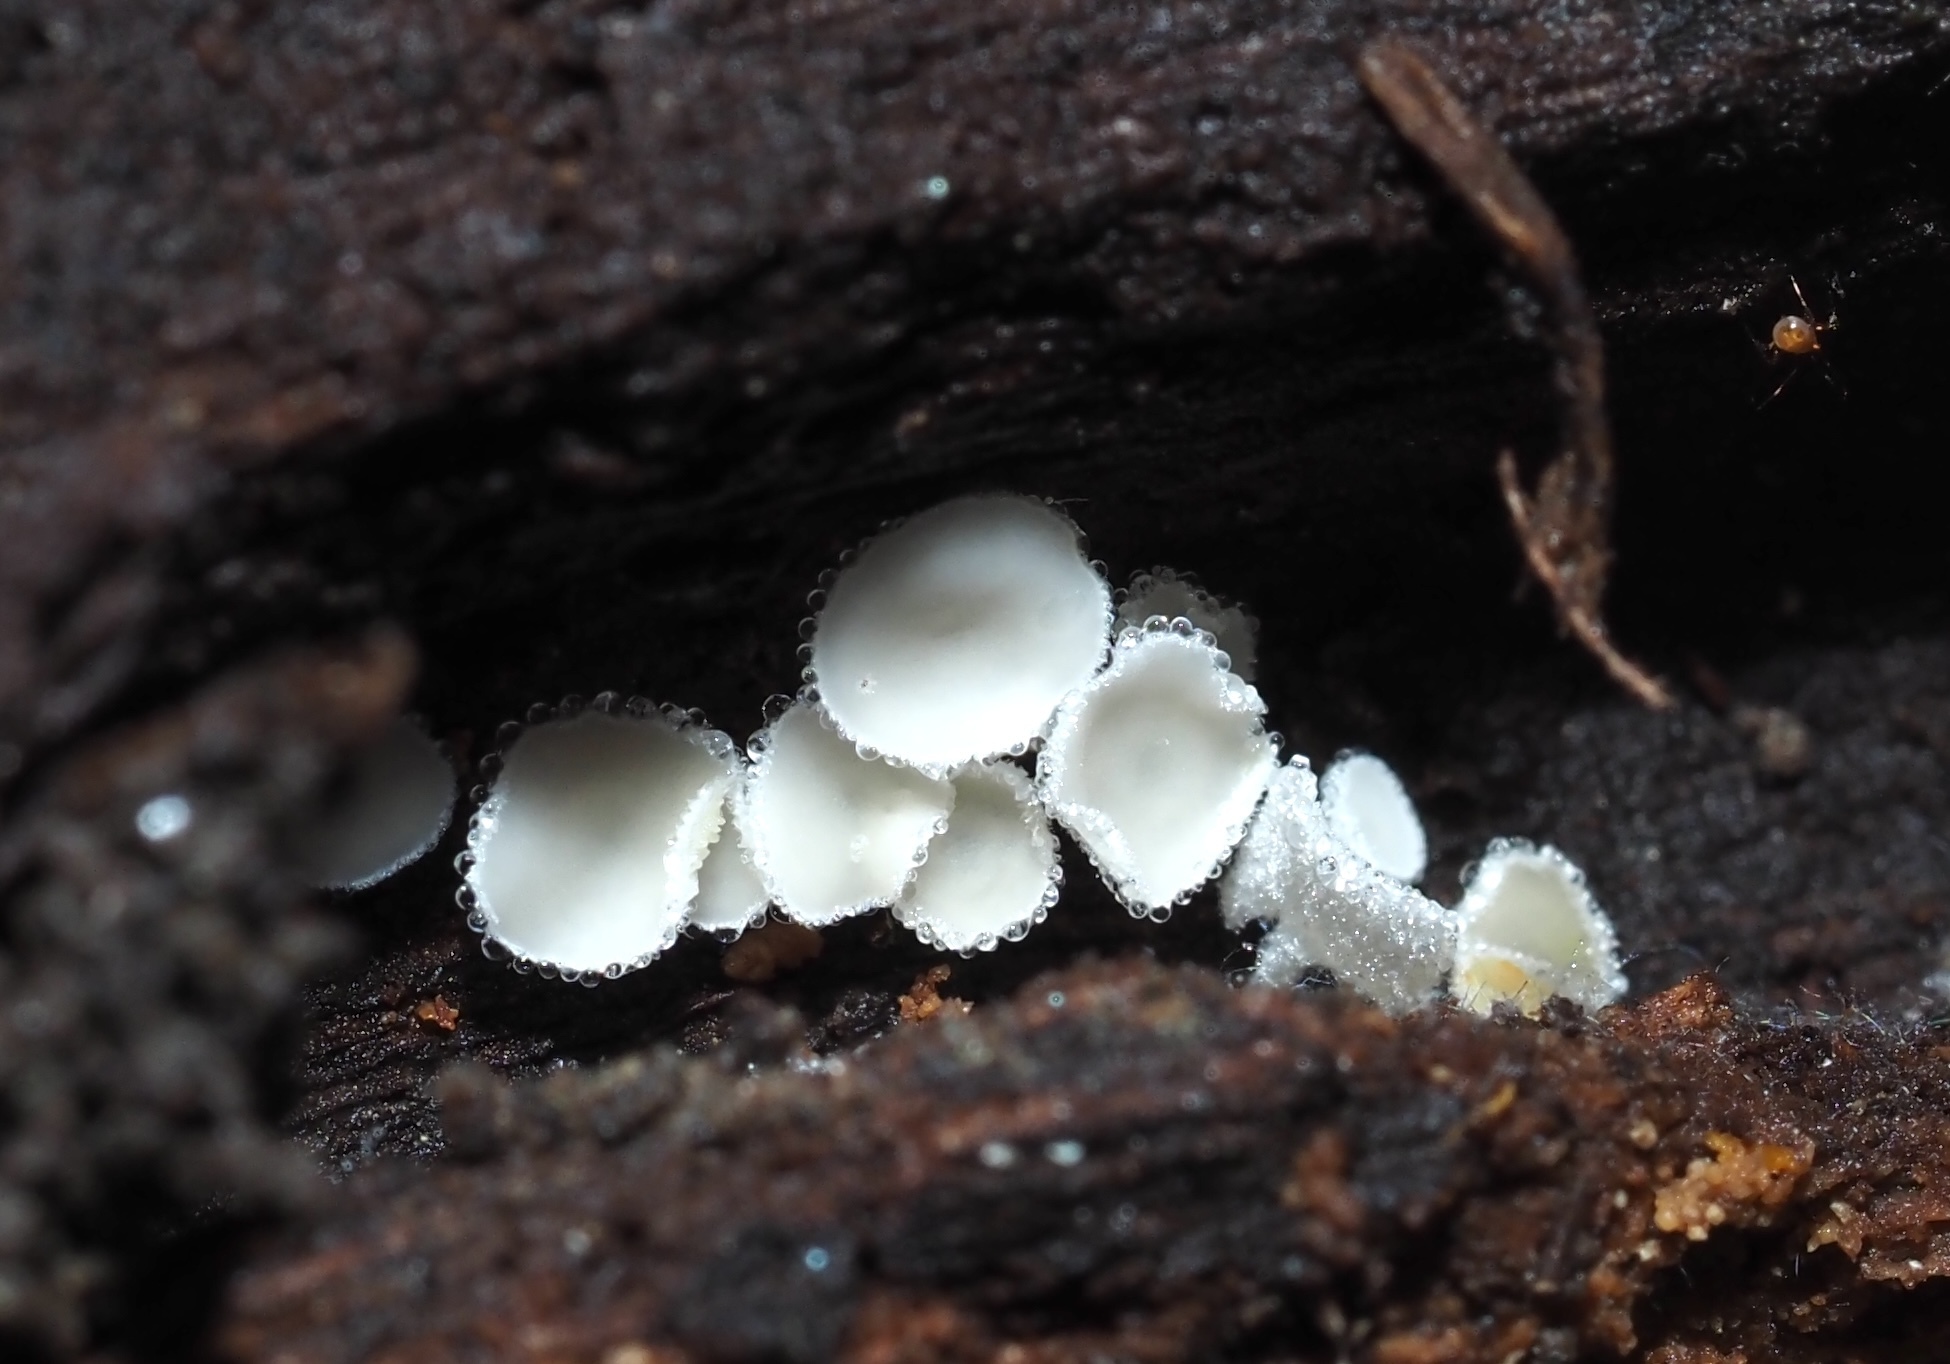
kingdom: Fungi
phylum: Ascomycota
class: Leotiomycetes
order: Helotiales
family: Lachnaceae
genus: Lachnum
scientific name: Lachnum virgineum
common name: Snowy disco
